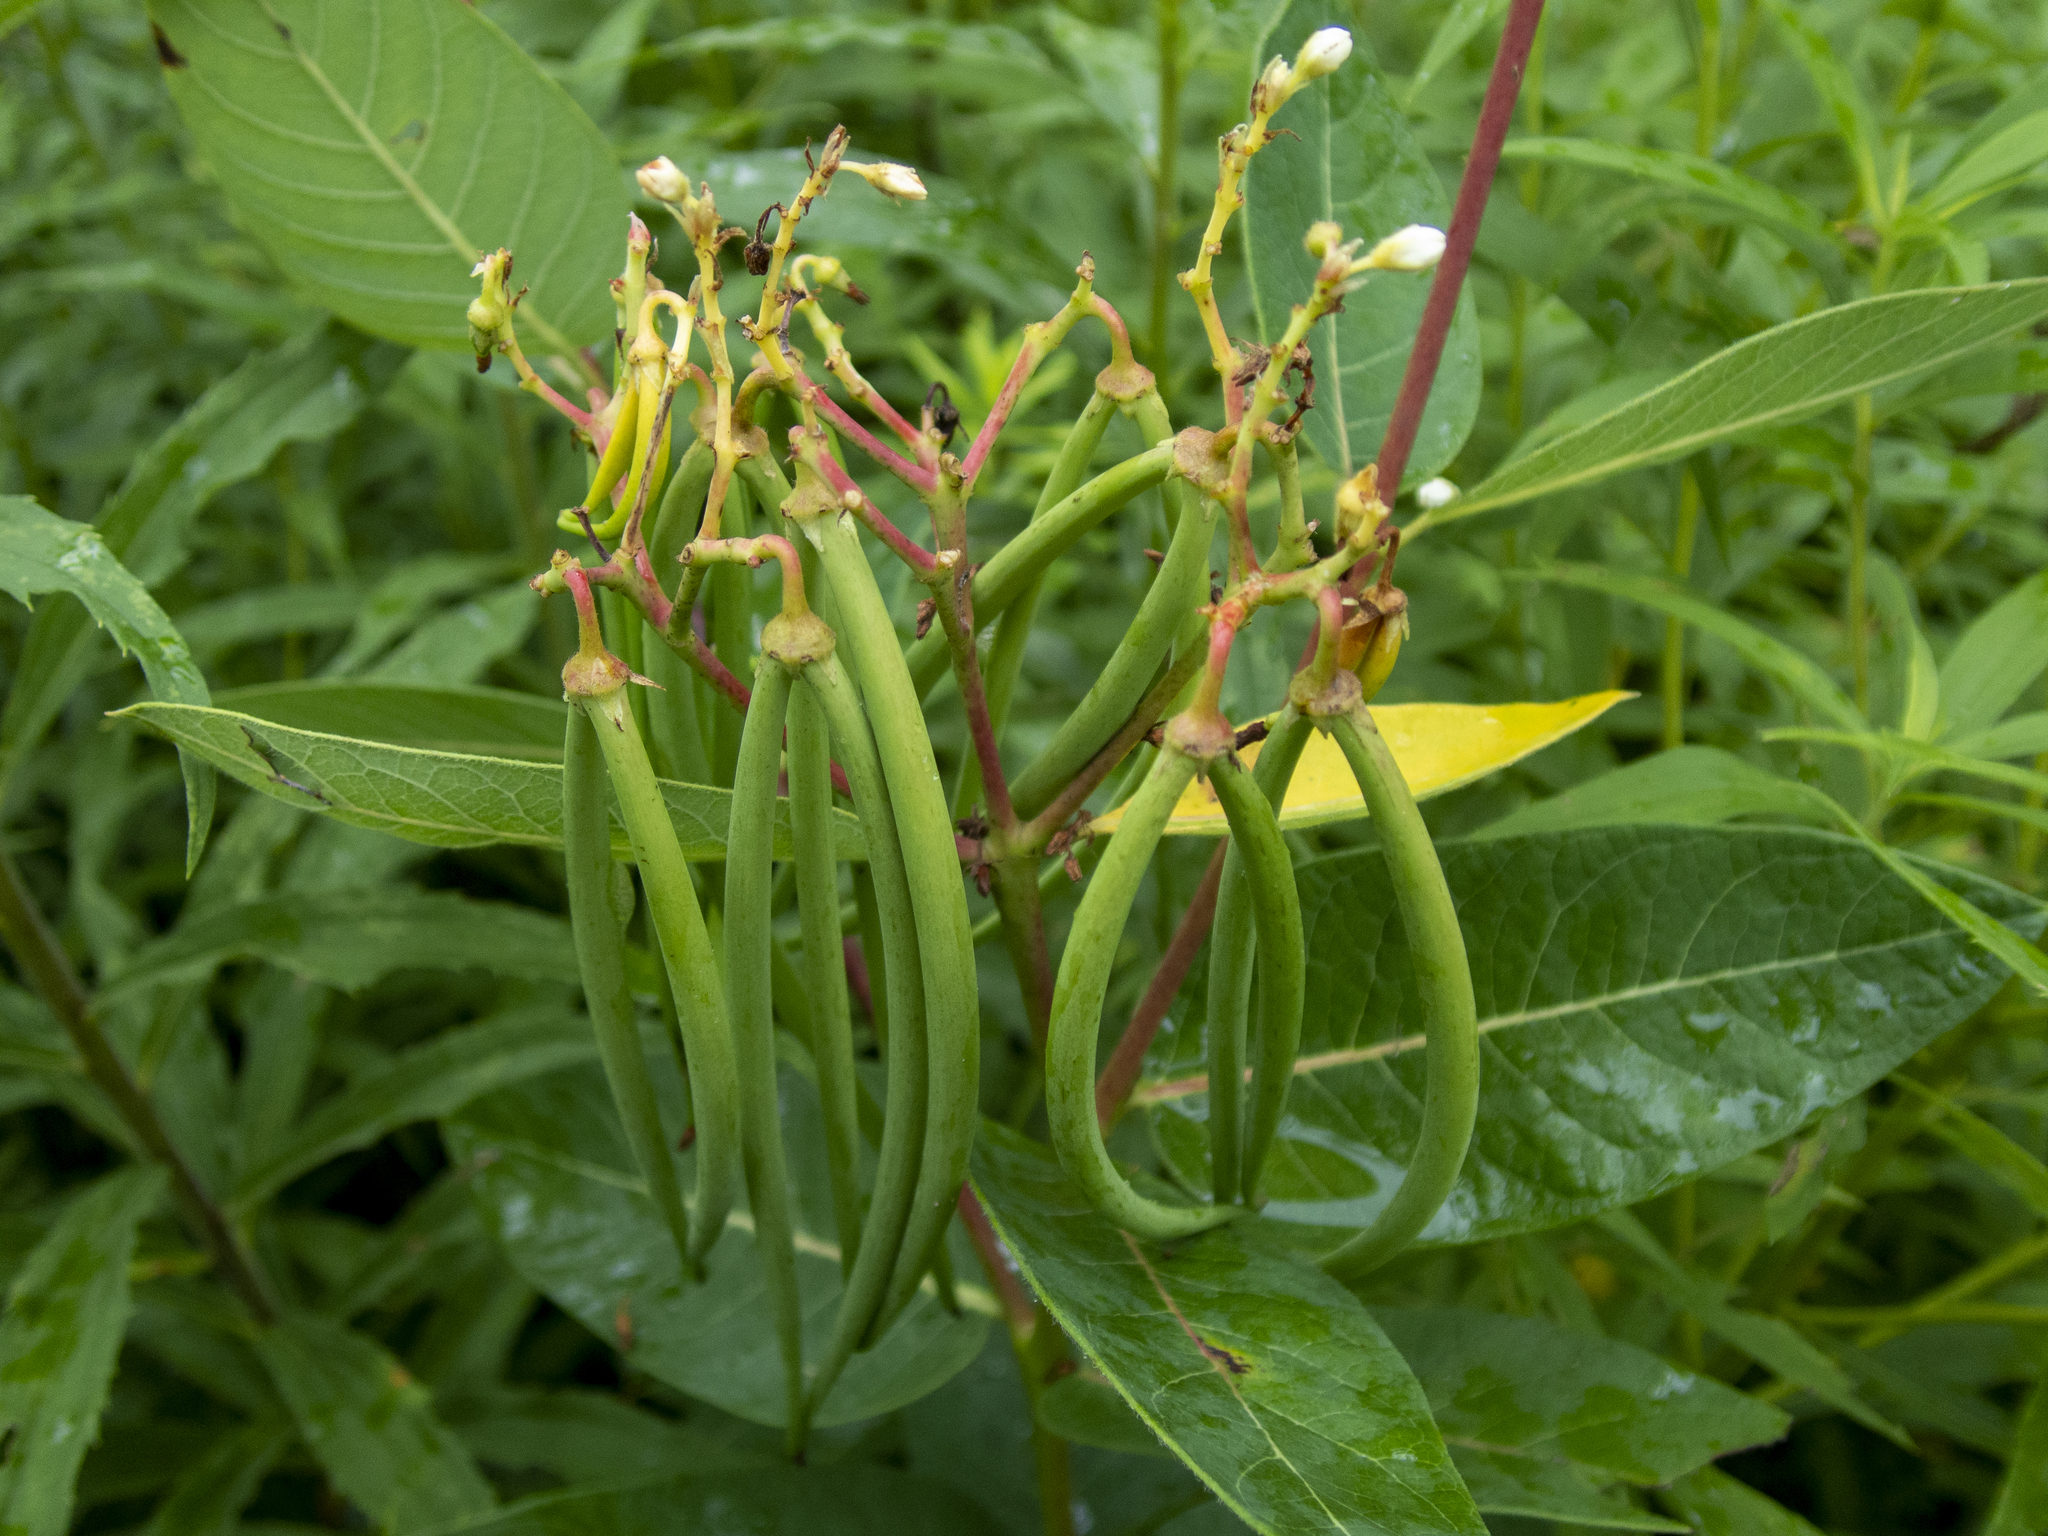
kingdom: Plantae
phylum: Tracheophyta
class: Magnoliopsida
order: Gentianales
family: Apocynaceae
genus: Apocynum
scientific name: Apocynum cannabinum
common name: Hemp dogbane
